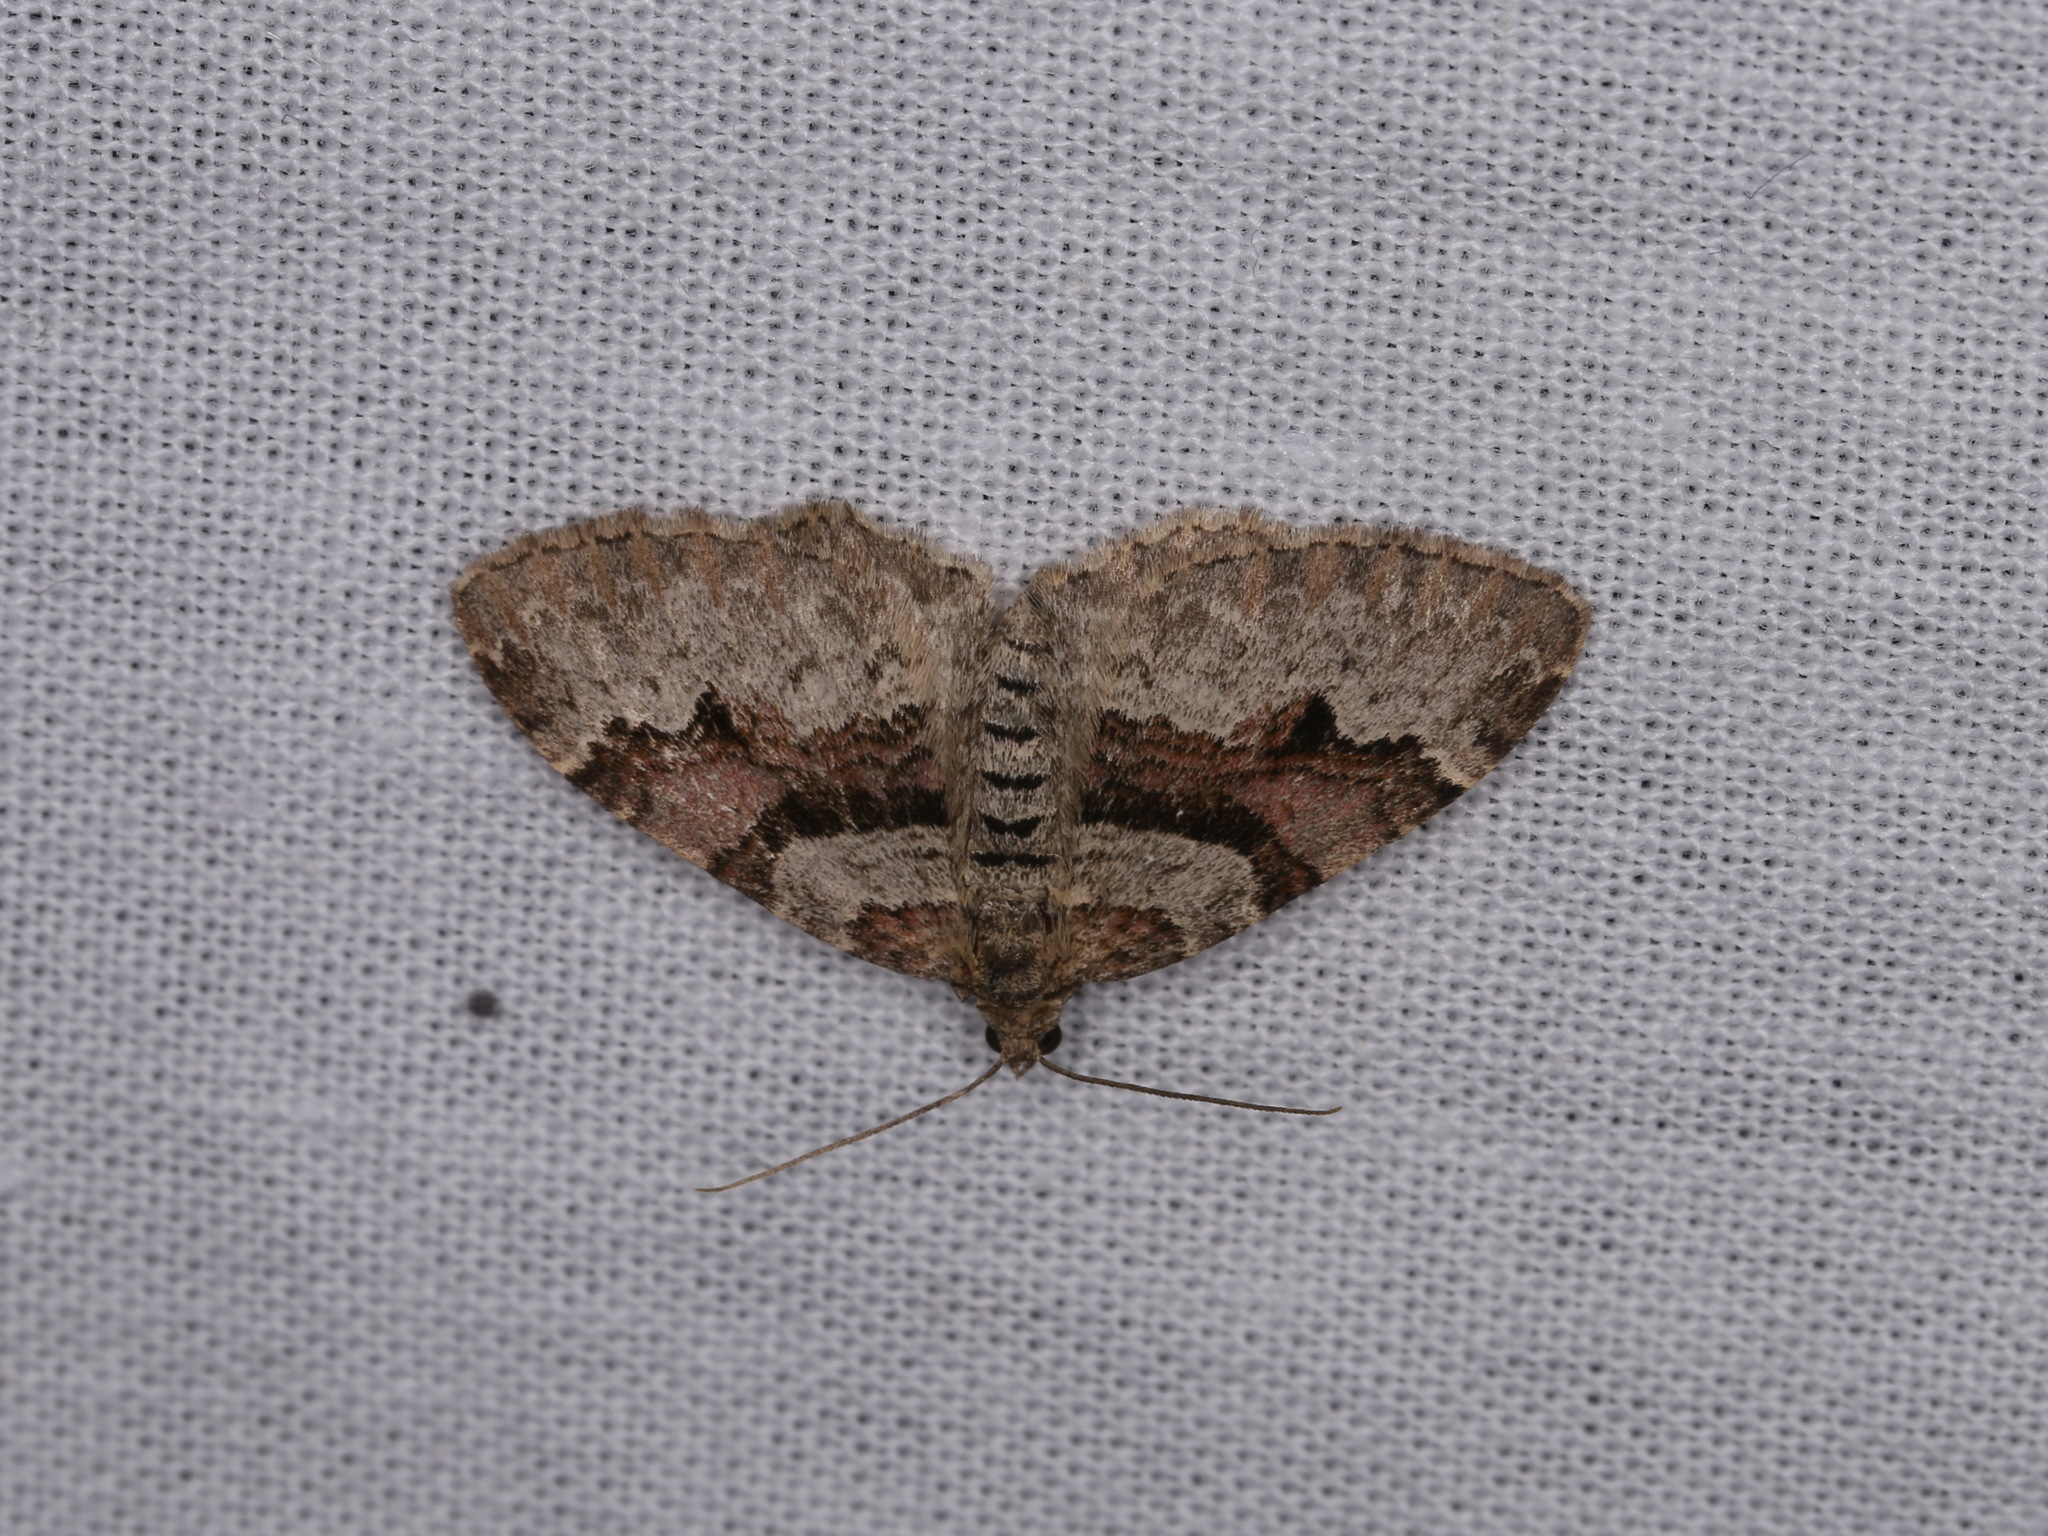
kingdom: Animalia
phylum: Arthropoda
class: Insecta
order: Lepidoptera
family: Geometridae
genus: Xanthorhoe
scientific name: Xanthorhoe designata
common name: Flame carpet
